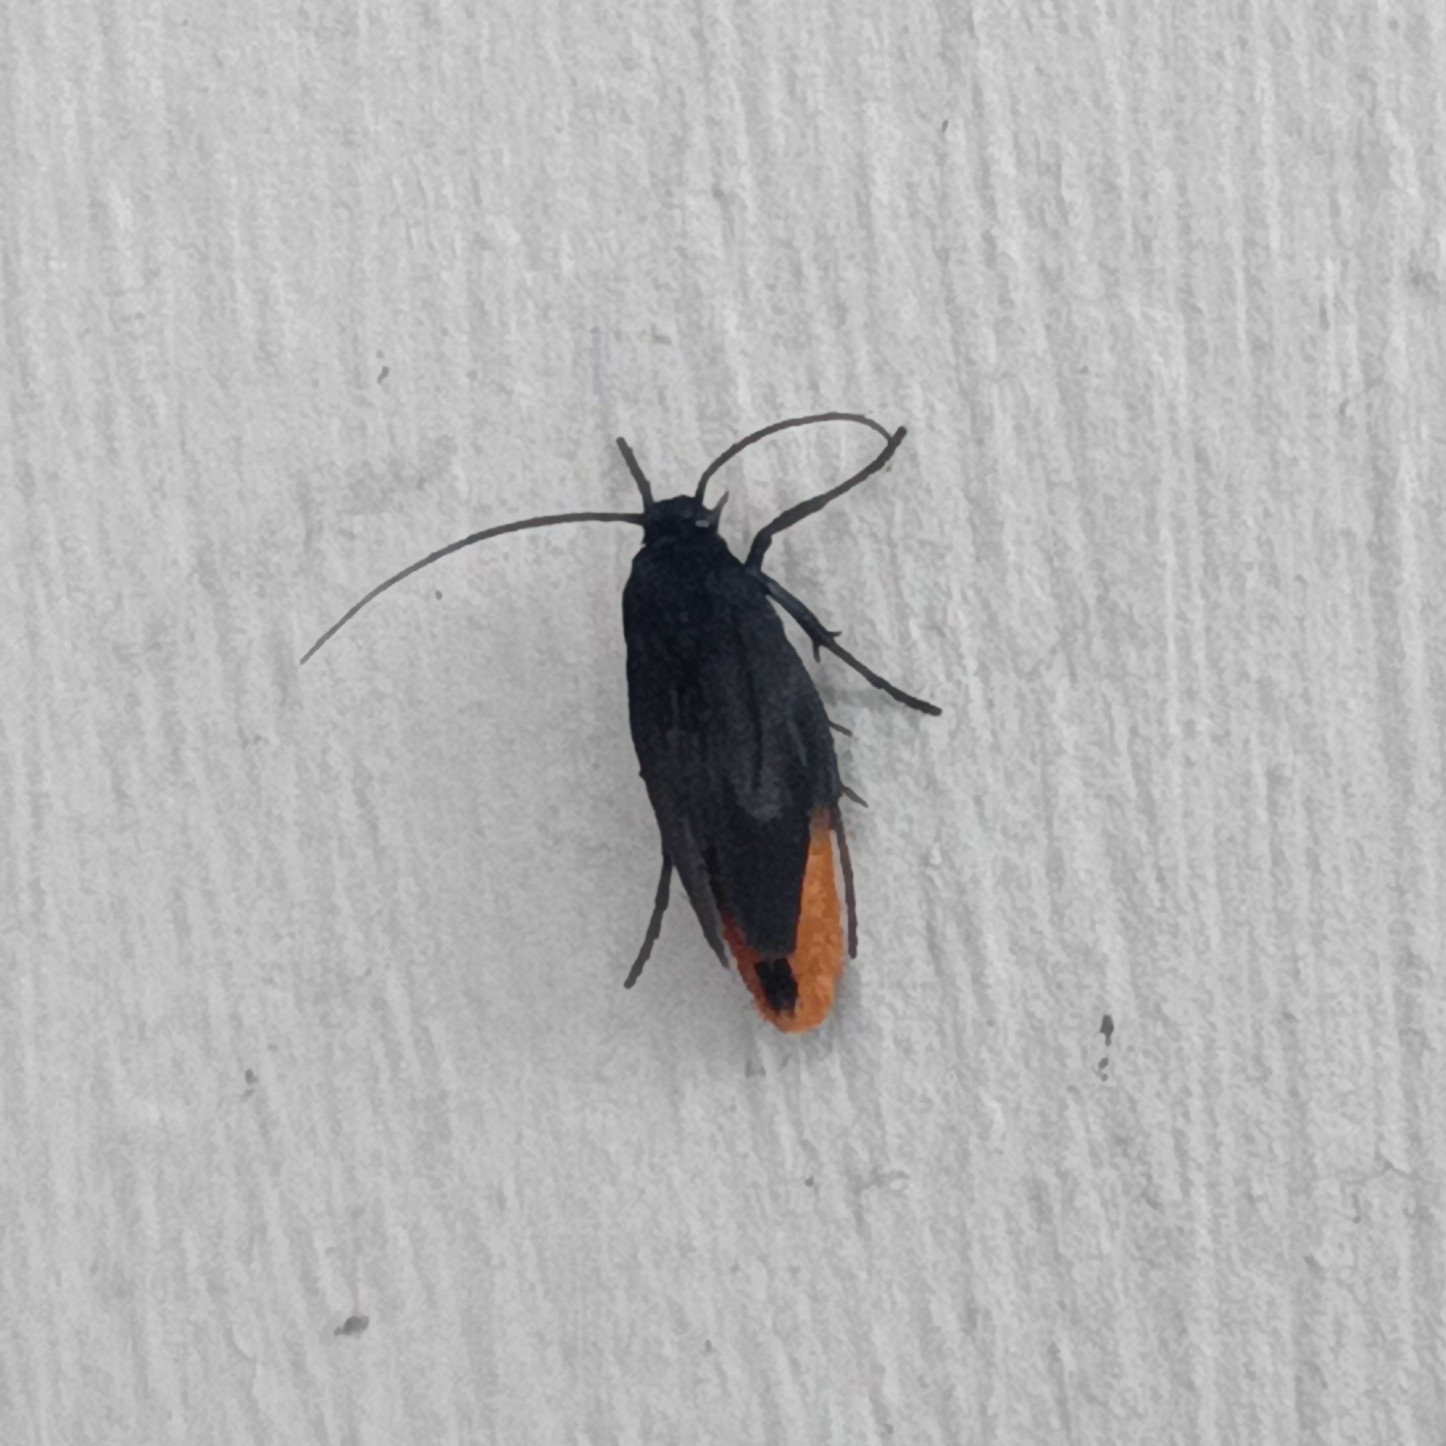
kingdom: Animalia
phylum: Arthropoda
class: Insecta
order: Lepidoptera
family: Scythrididae
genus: Scythris
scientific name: Scythris sinensis
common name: Kentish owlet
